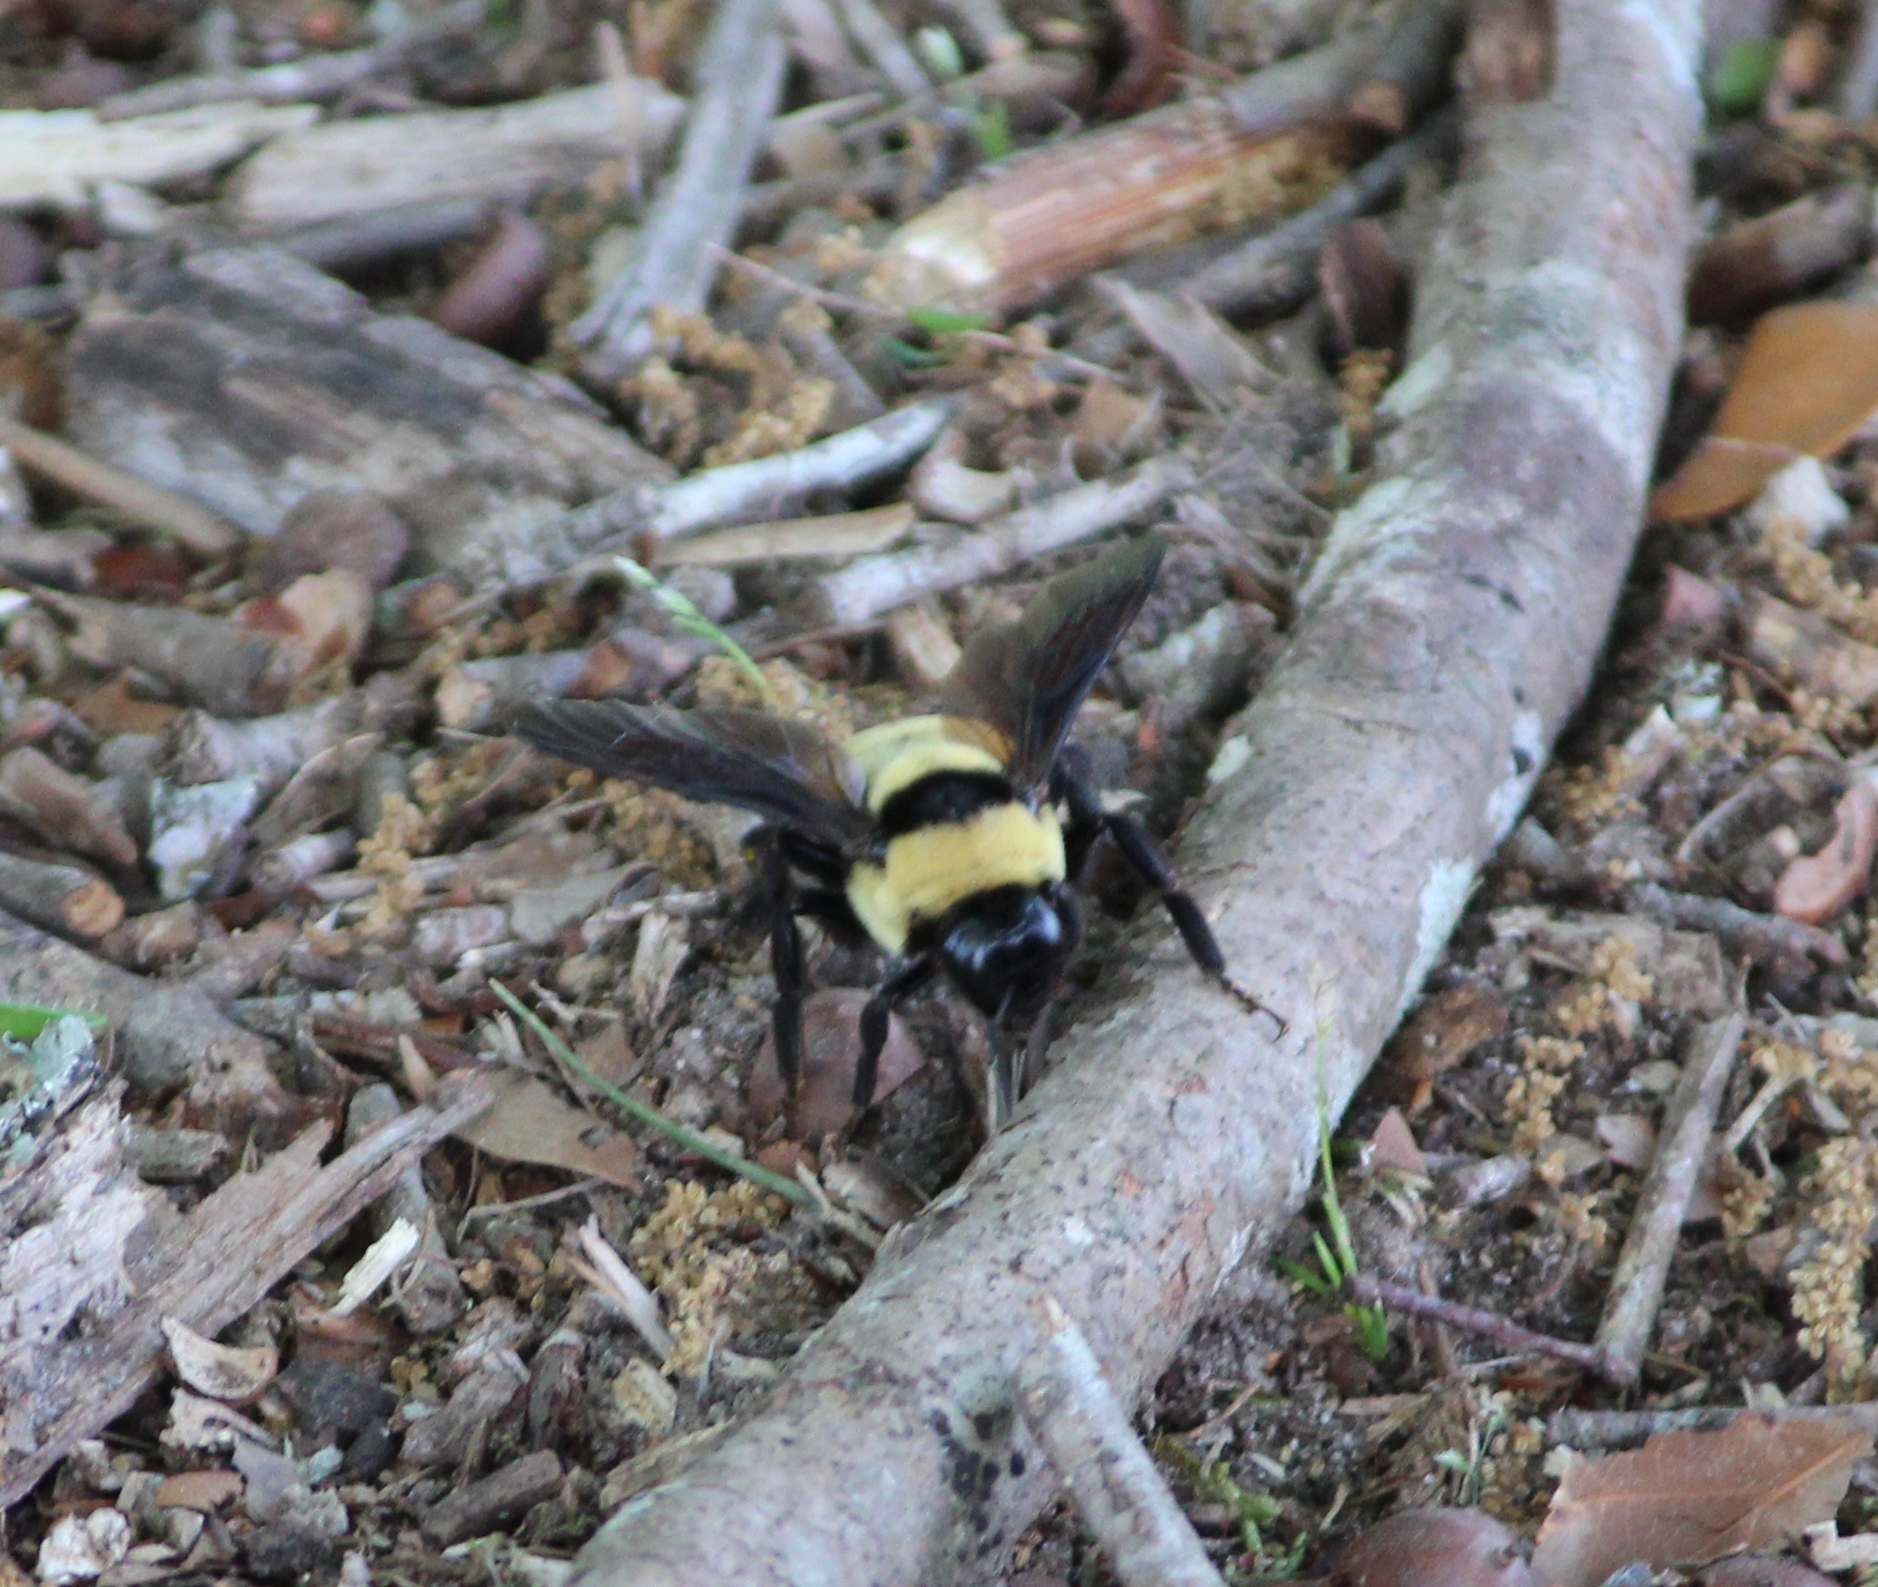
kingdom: Animalia
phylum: Arthropoda
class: Insecta
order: Hymenoptera
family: Apidae
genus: Bombus
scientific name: Bombus fraternus
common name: Southern plains bumble bee
